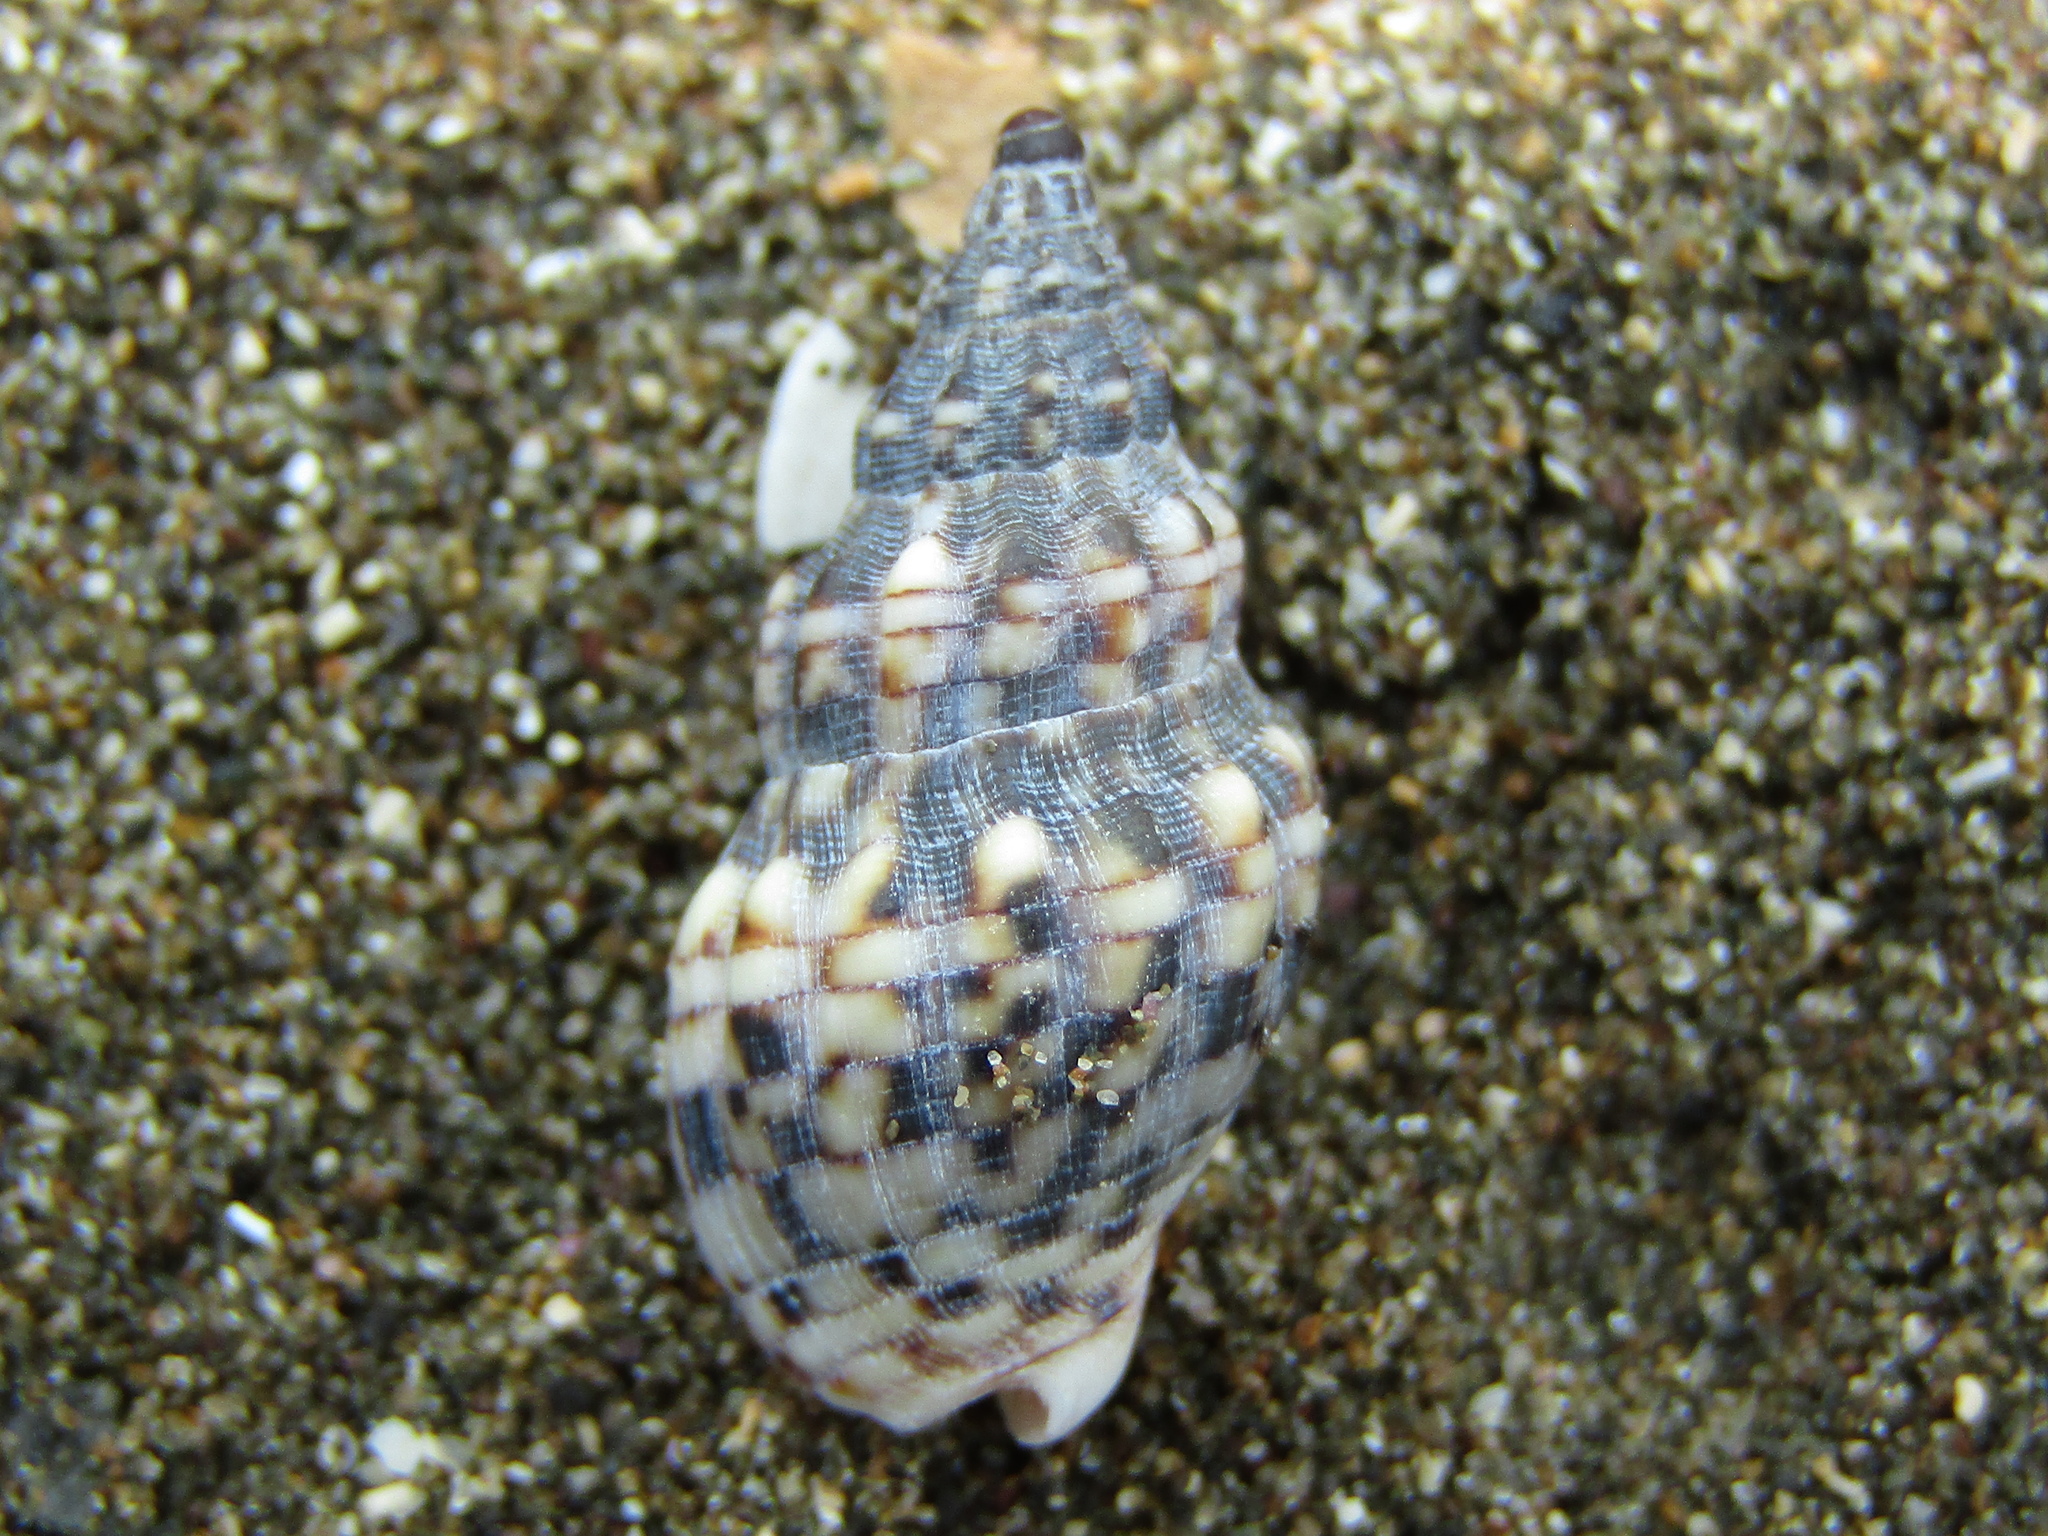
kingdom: Animalia
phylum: Mollusca
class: Gastropoda
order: Neogastropoda
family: Cominellidae
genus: Cominella
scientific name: Cominella quoyana
